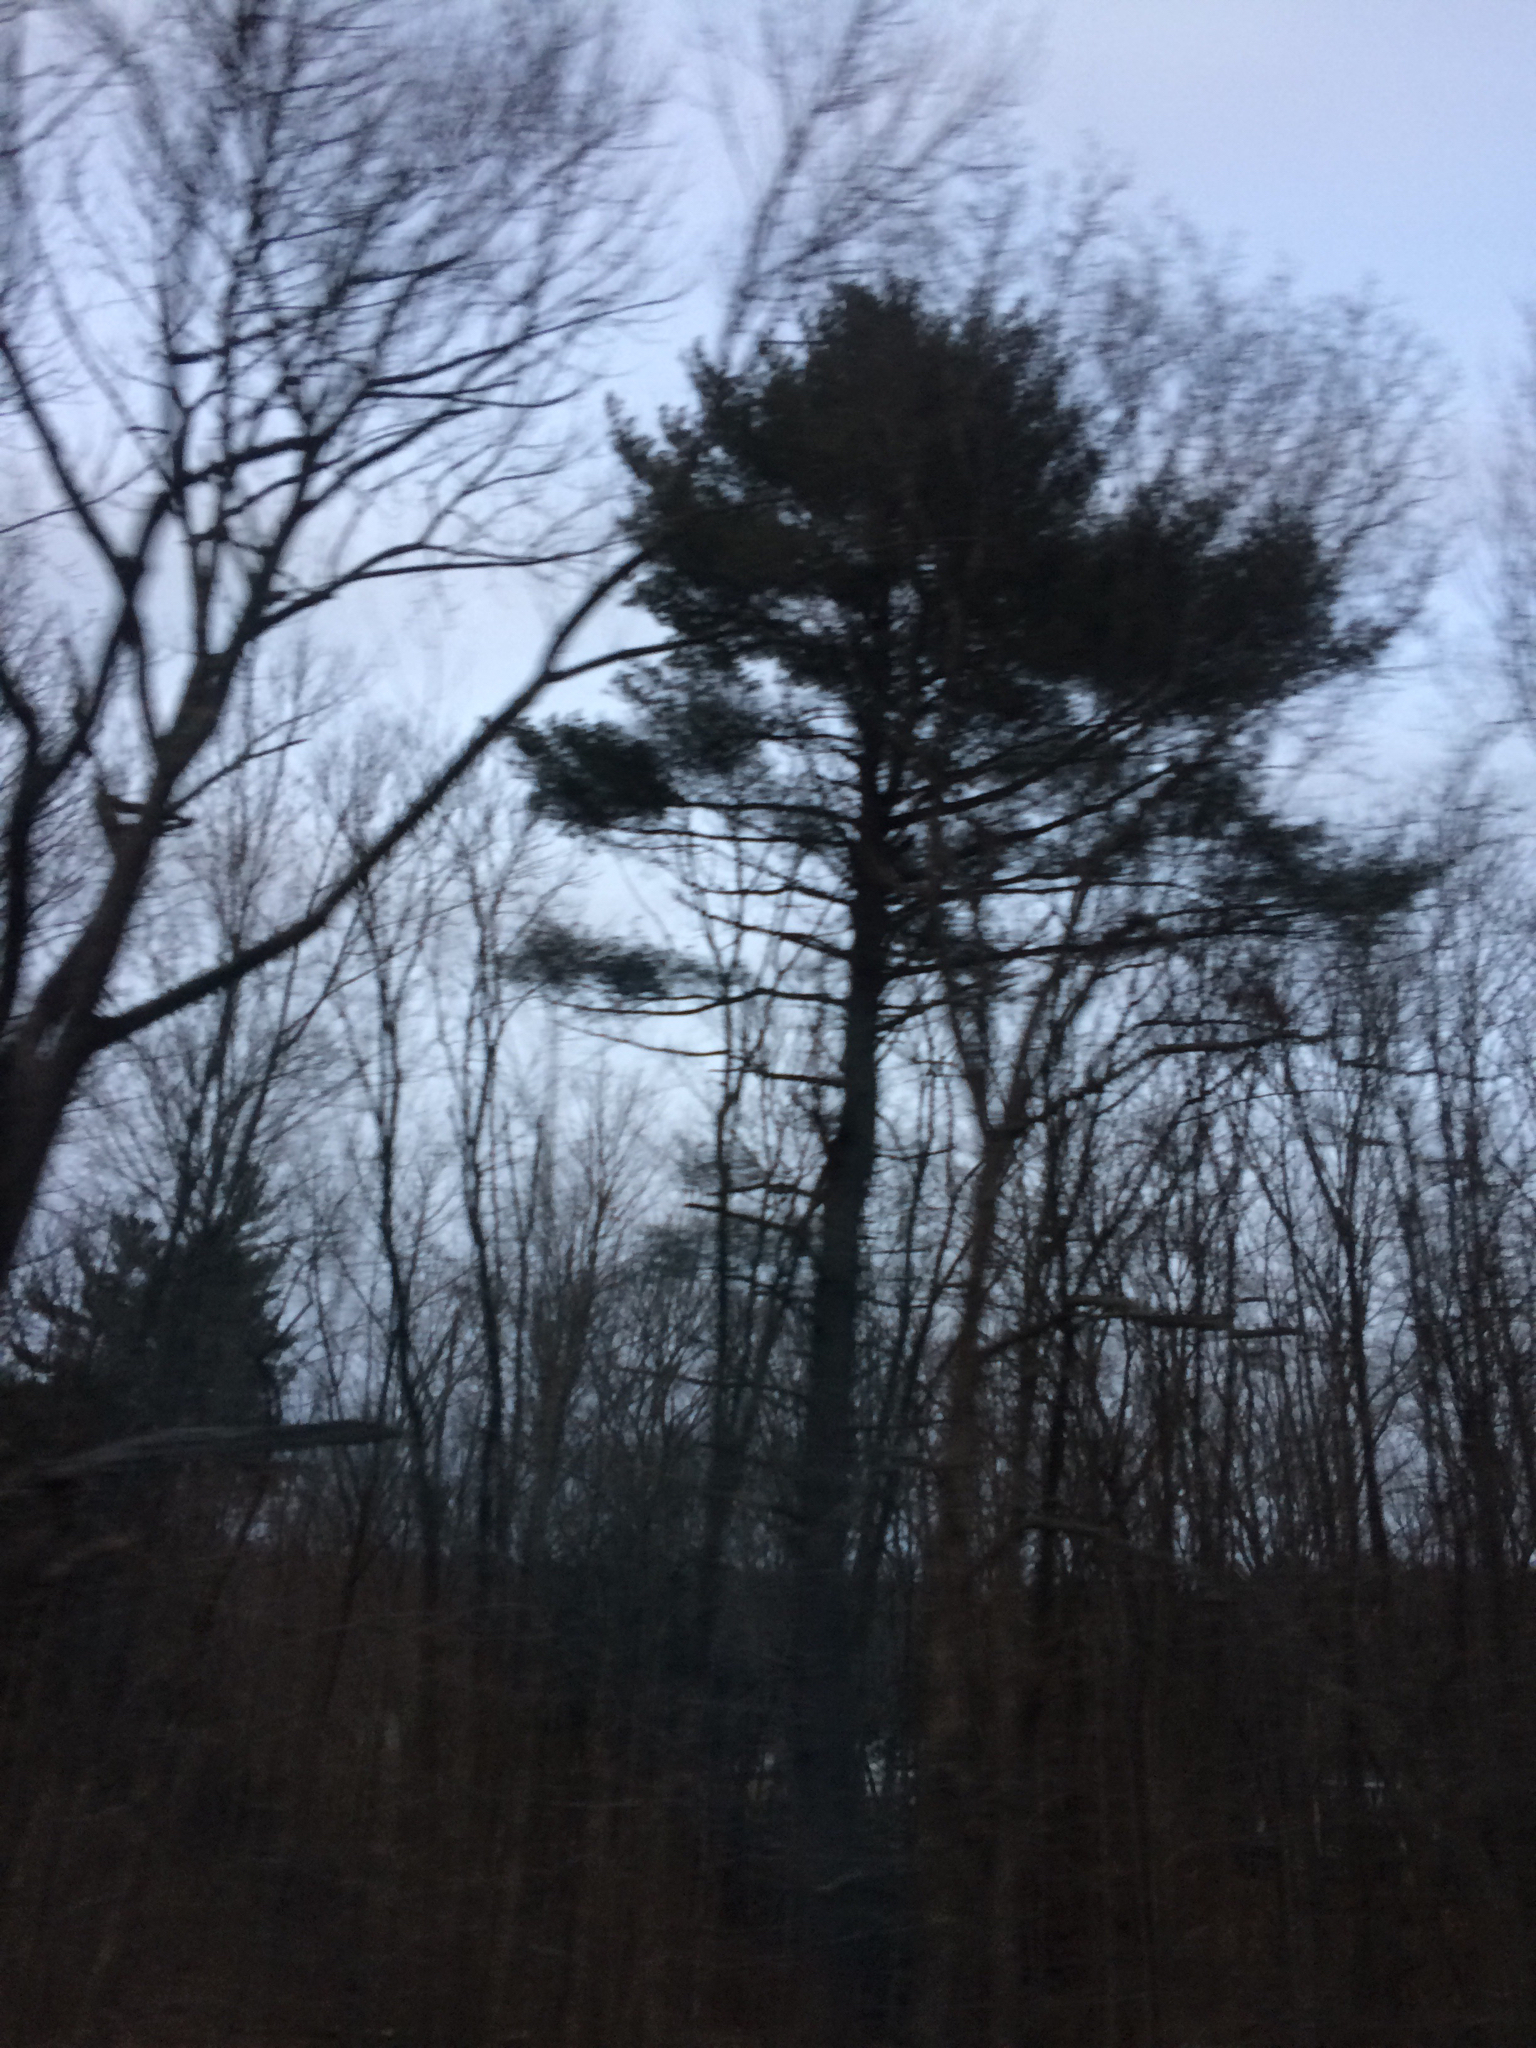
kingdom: Plantae
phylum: Tracheophyta
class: Pinopsida
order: Pinales
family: Pinaceae
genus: Pinus
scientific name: Pinus strobus
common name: Weymouth pine
